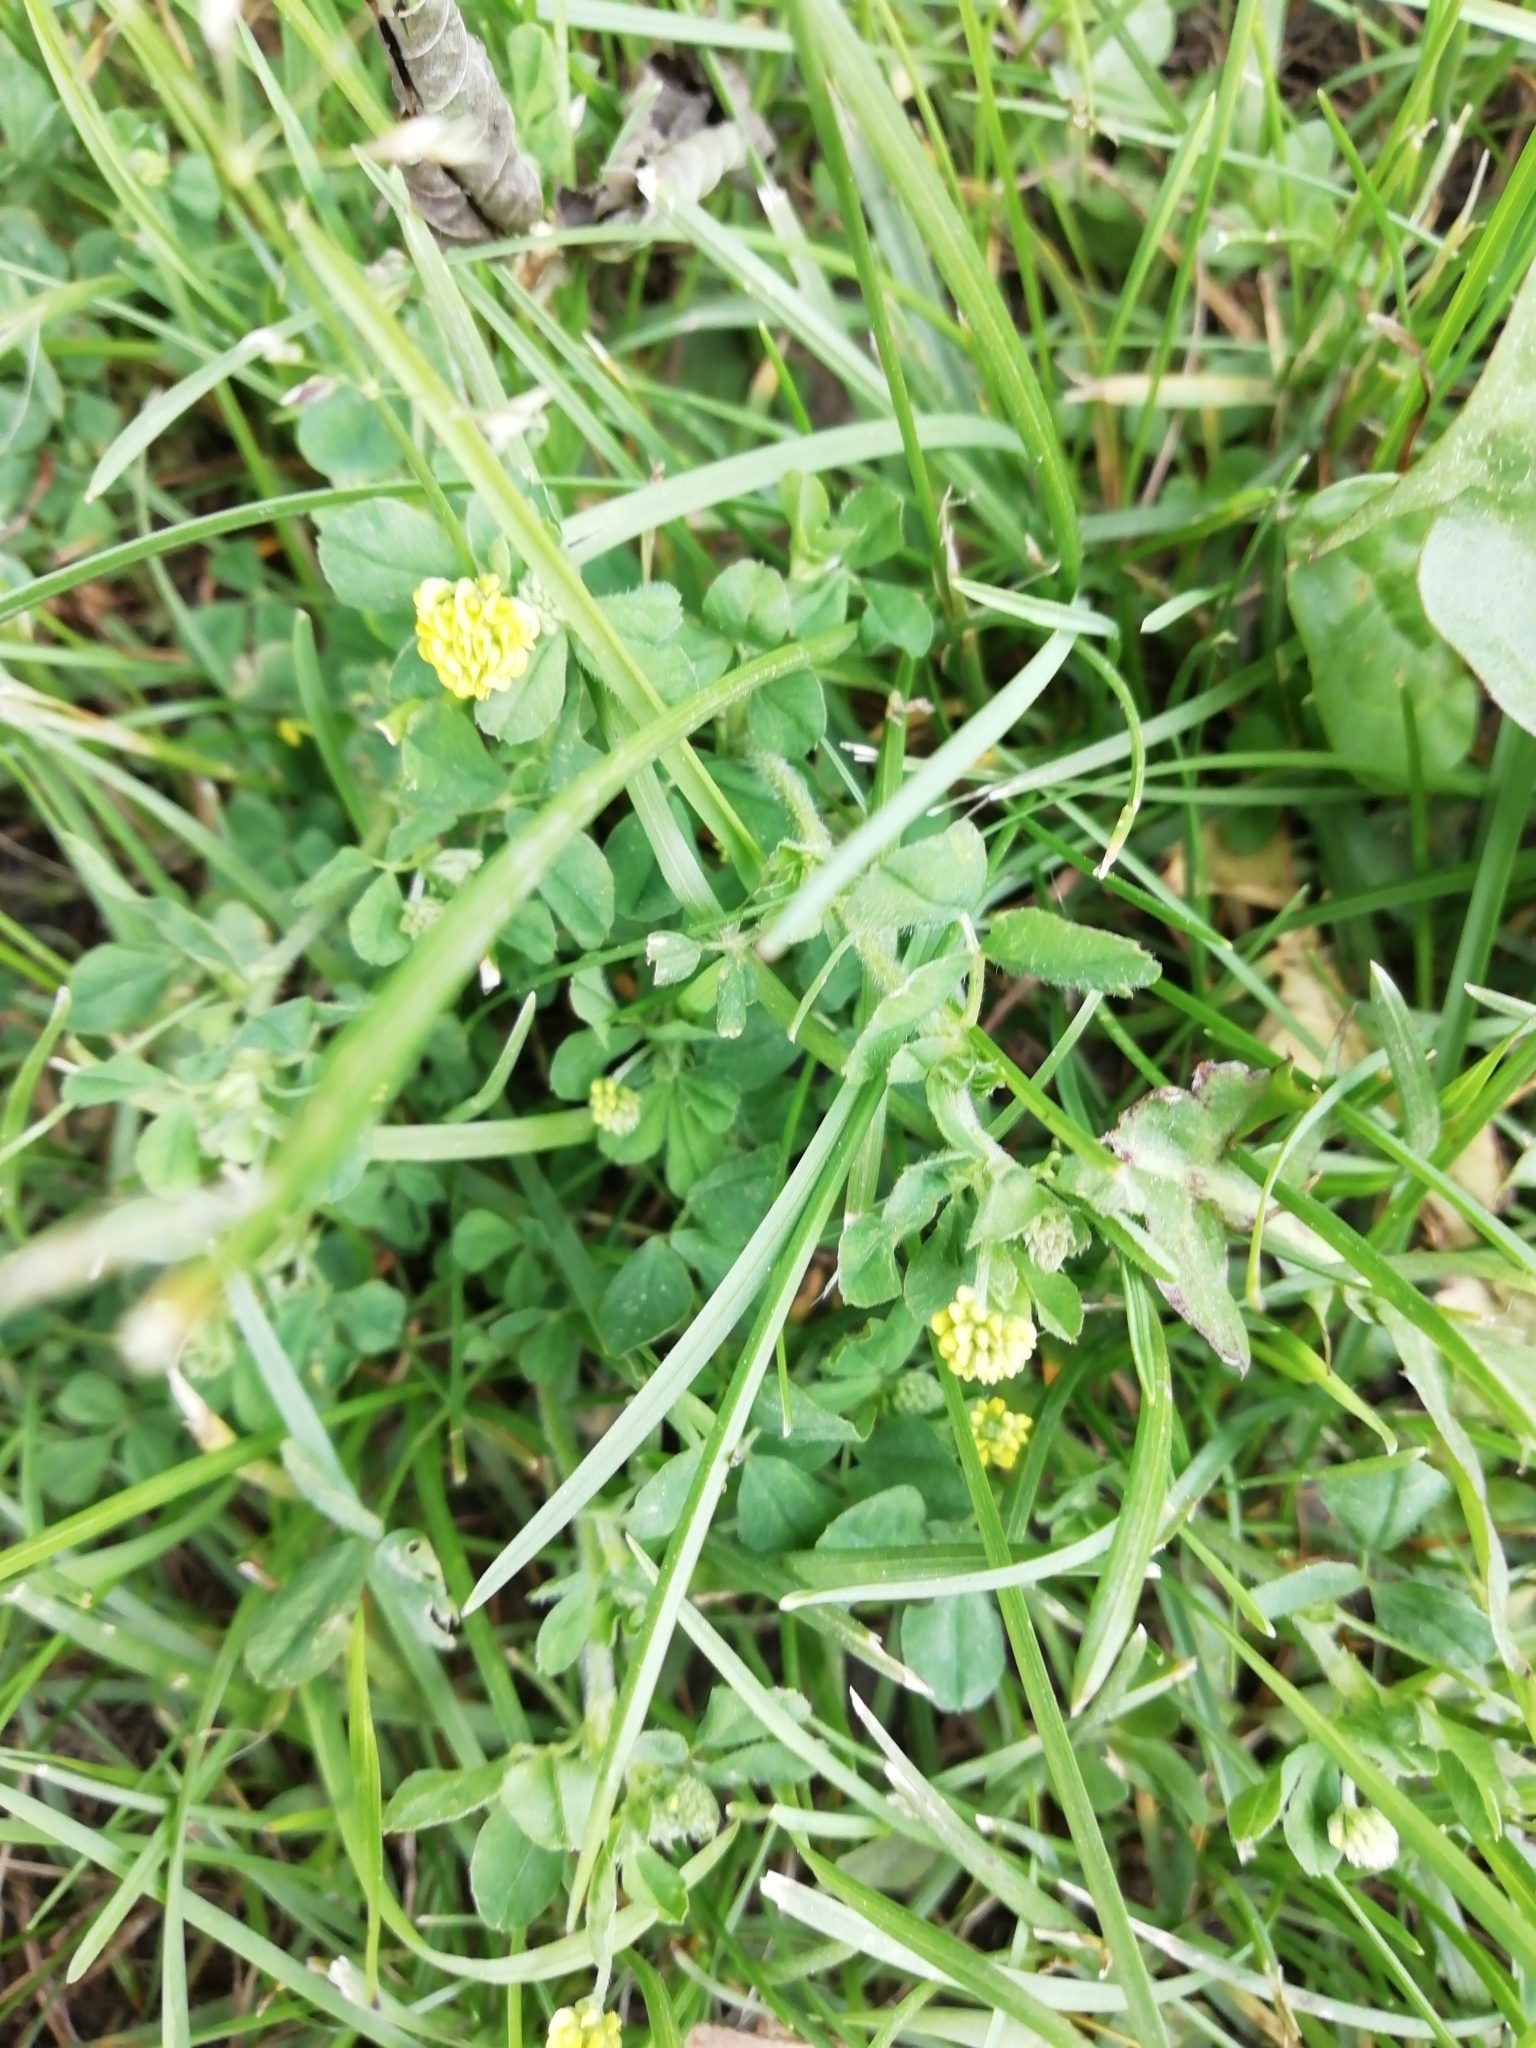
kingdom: Plantae
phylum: Tracheophyta
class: Magnoliopsida
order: Fabales
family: Fabaceae
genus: Medicago
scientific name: Medicago lupulina
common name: Black medick
